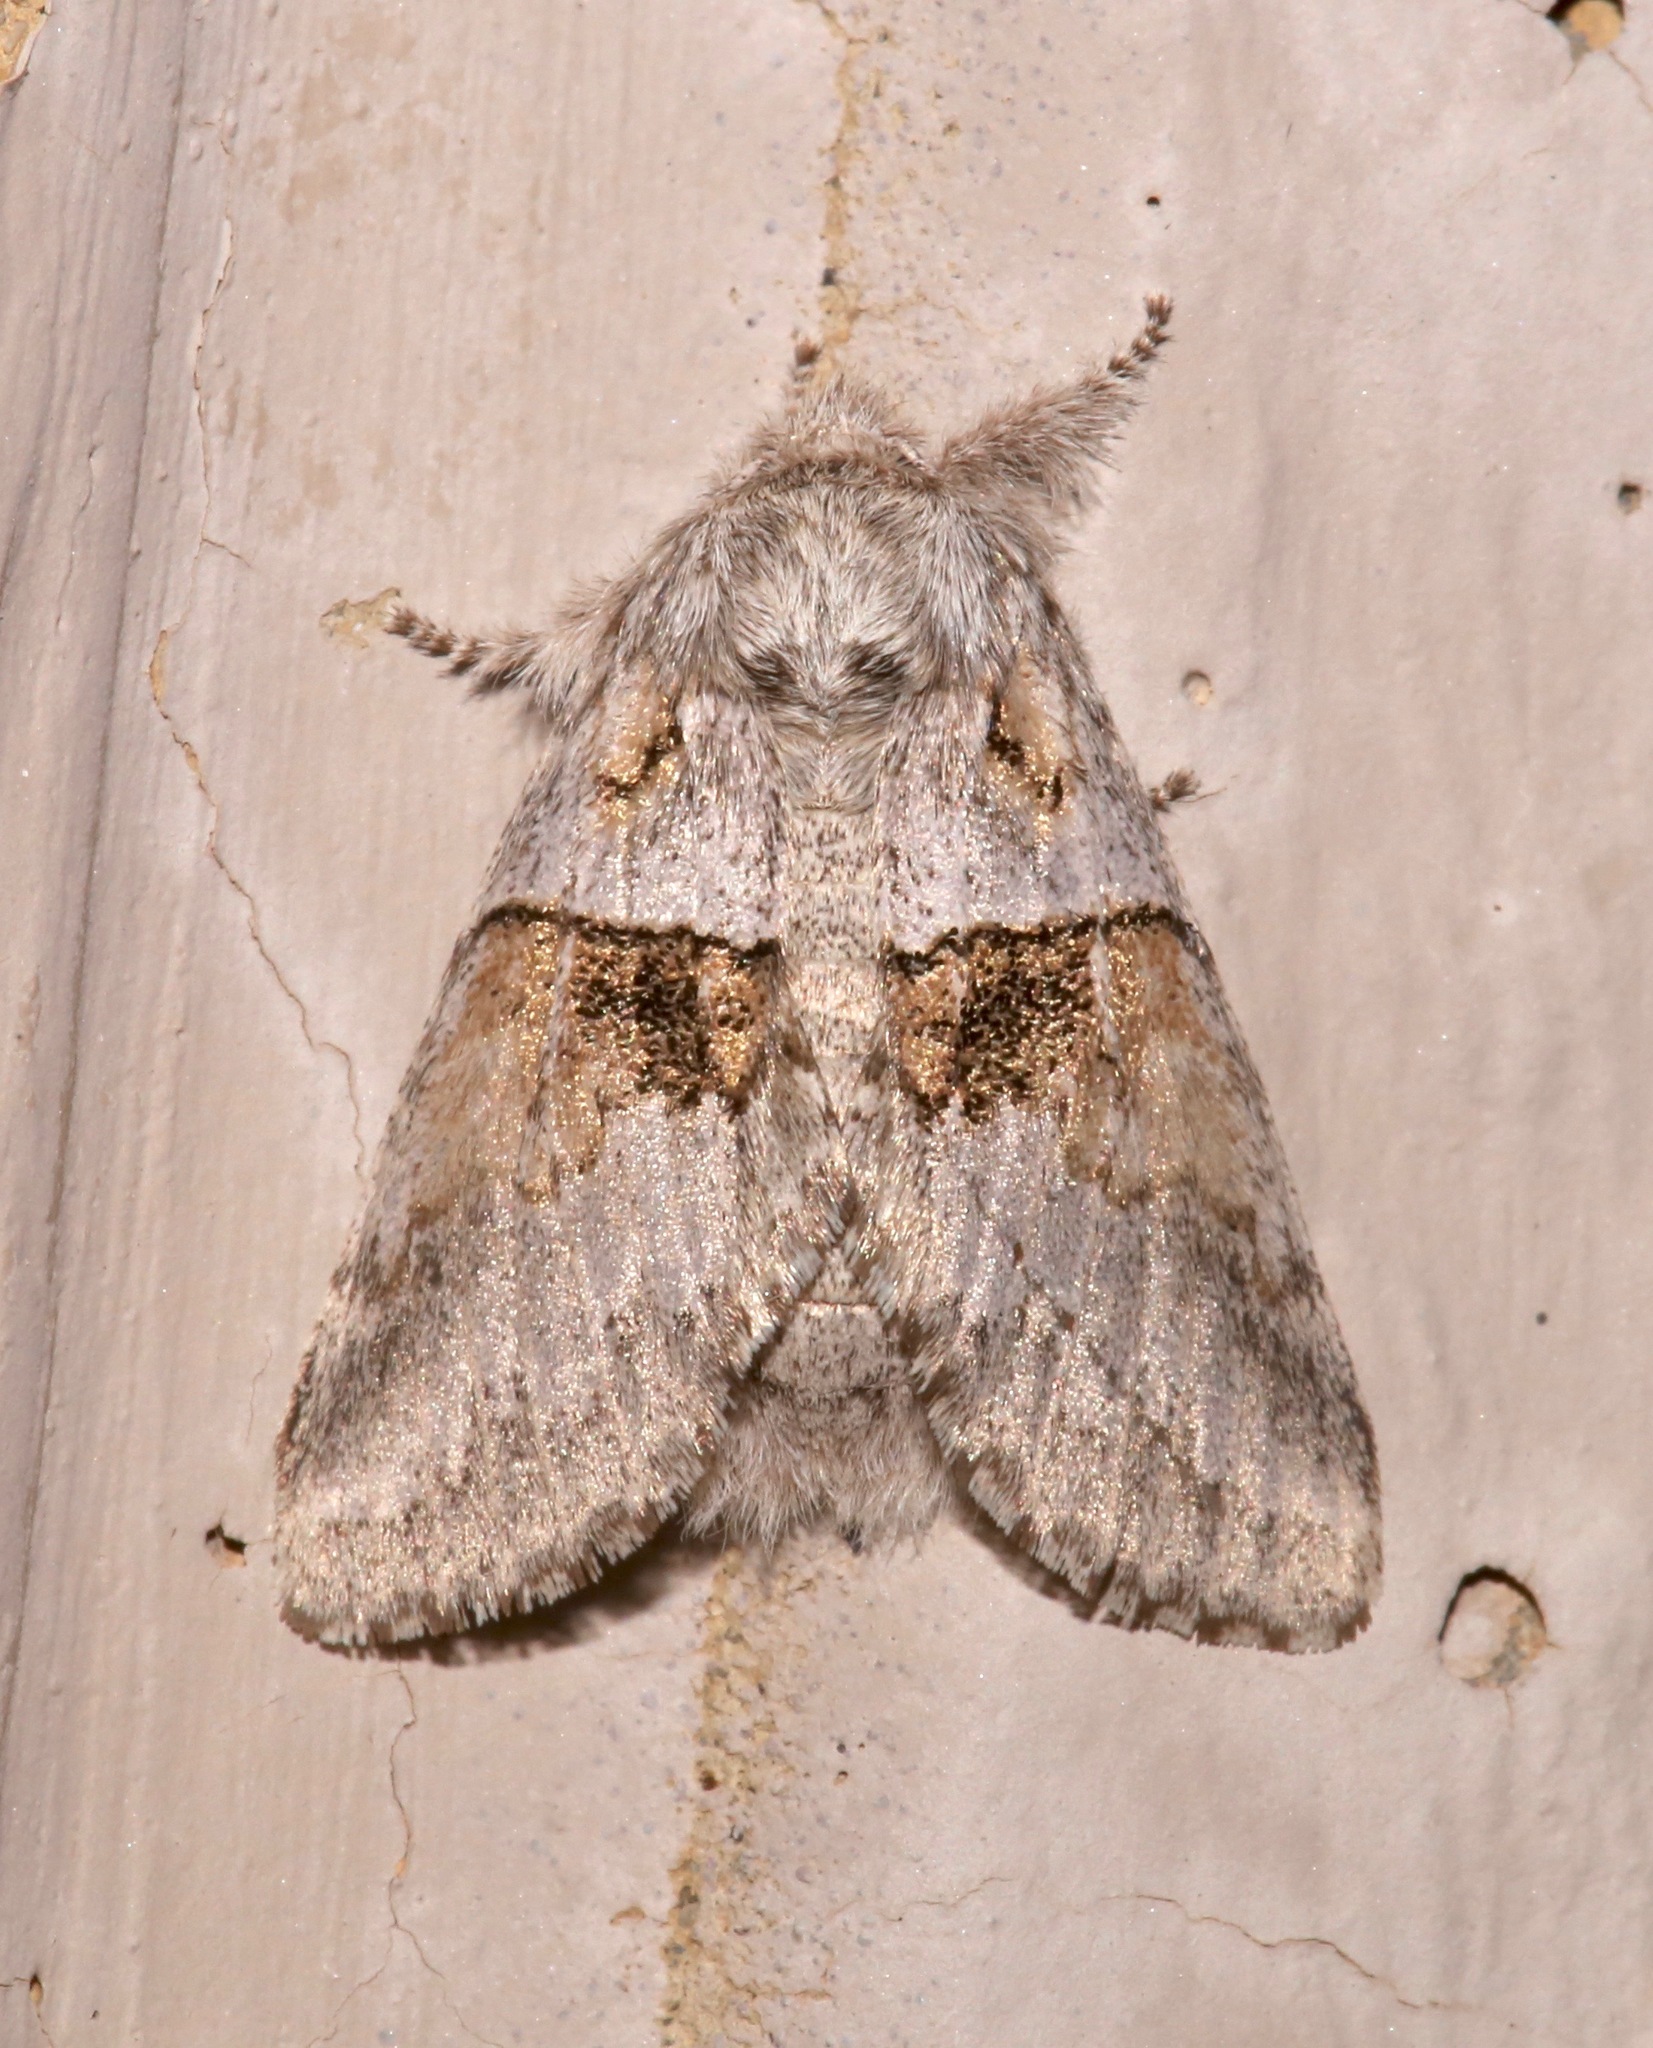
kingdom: Animalia
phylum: Arthropoda
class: Insecta
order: Lepidoptera
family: Notodontidae
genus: Gluphisia
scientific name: Gluphisia septentrionis
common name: Common gluphisia
